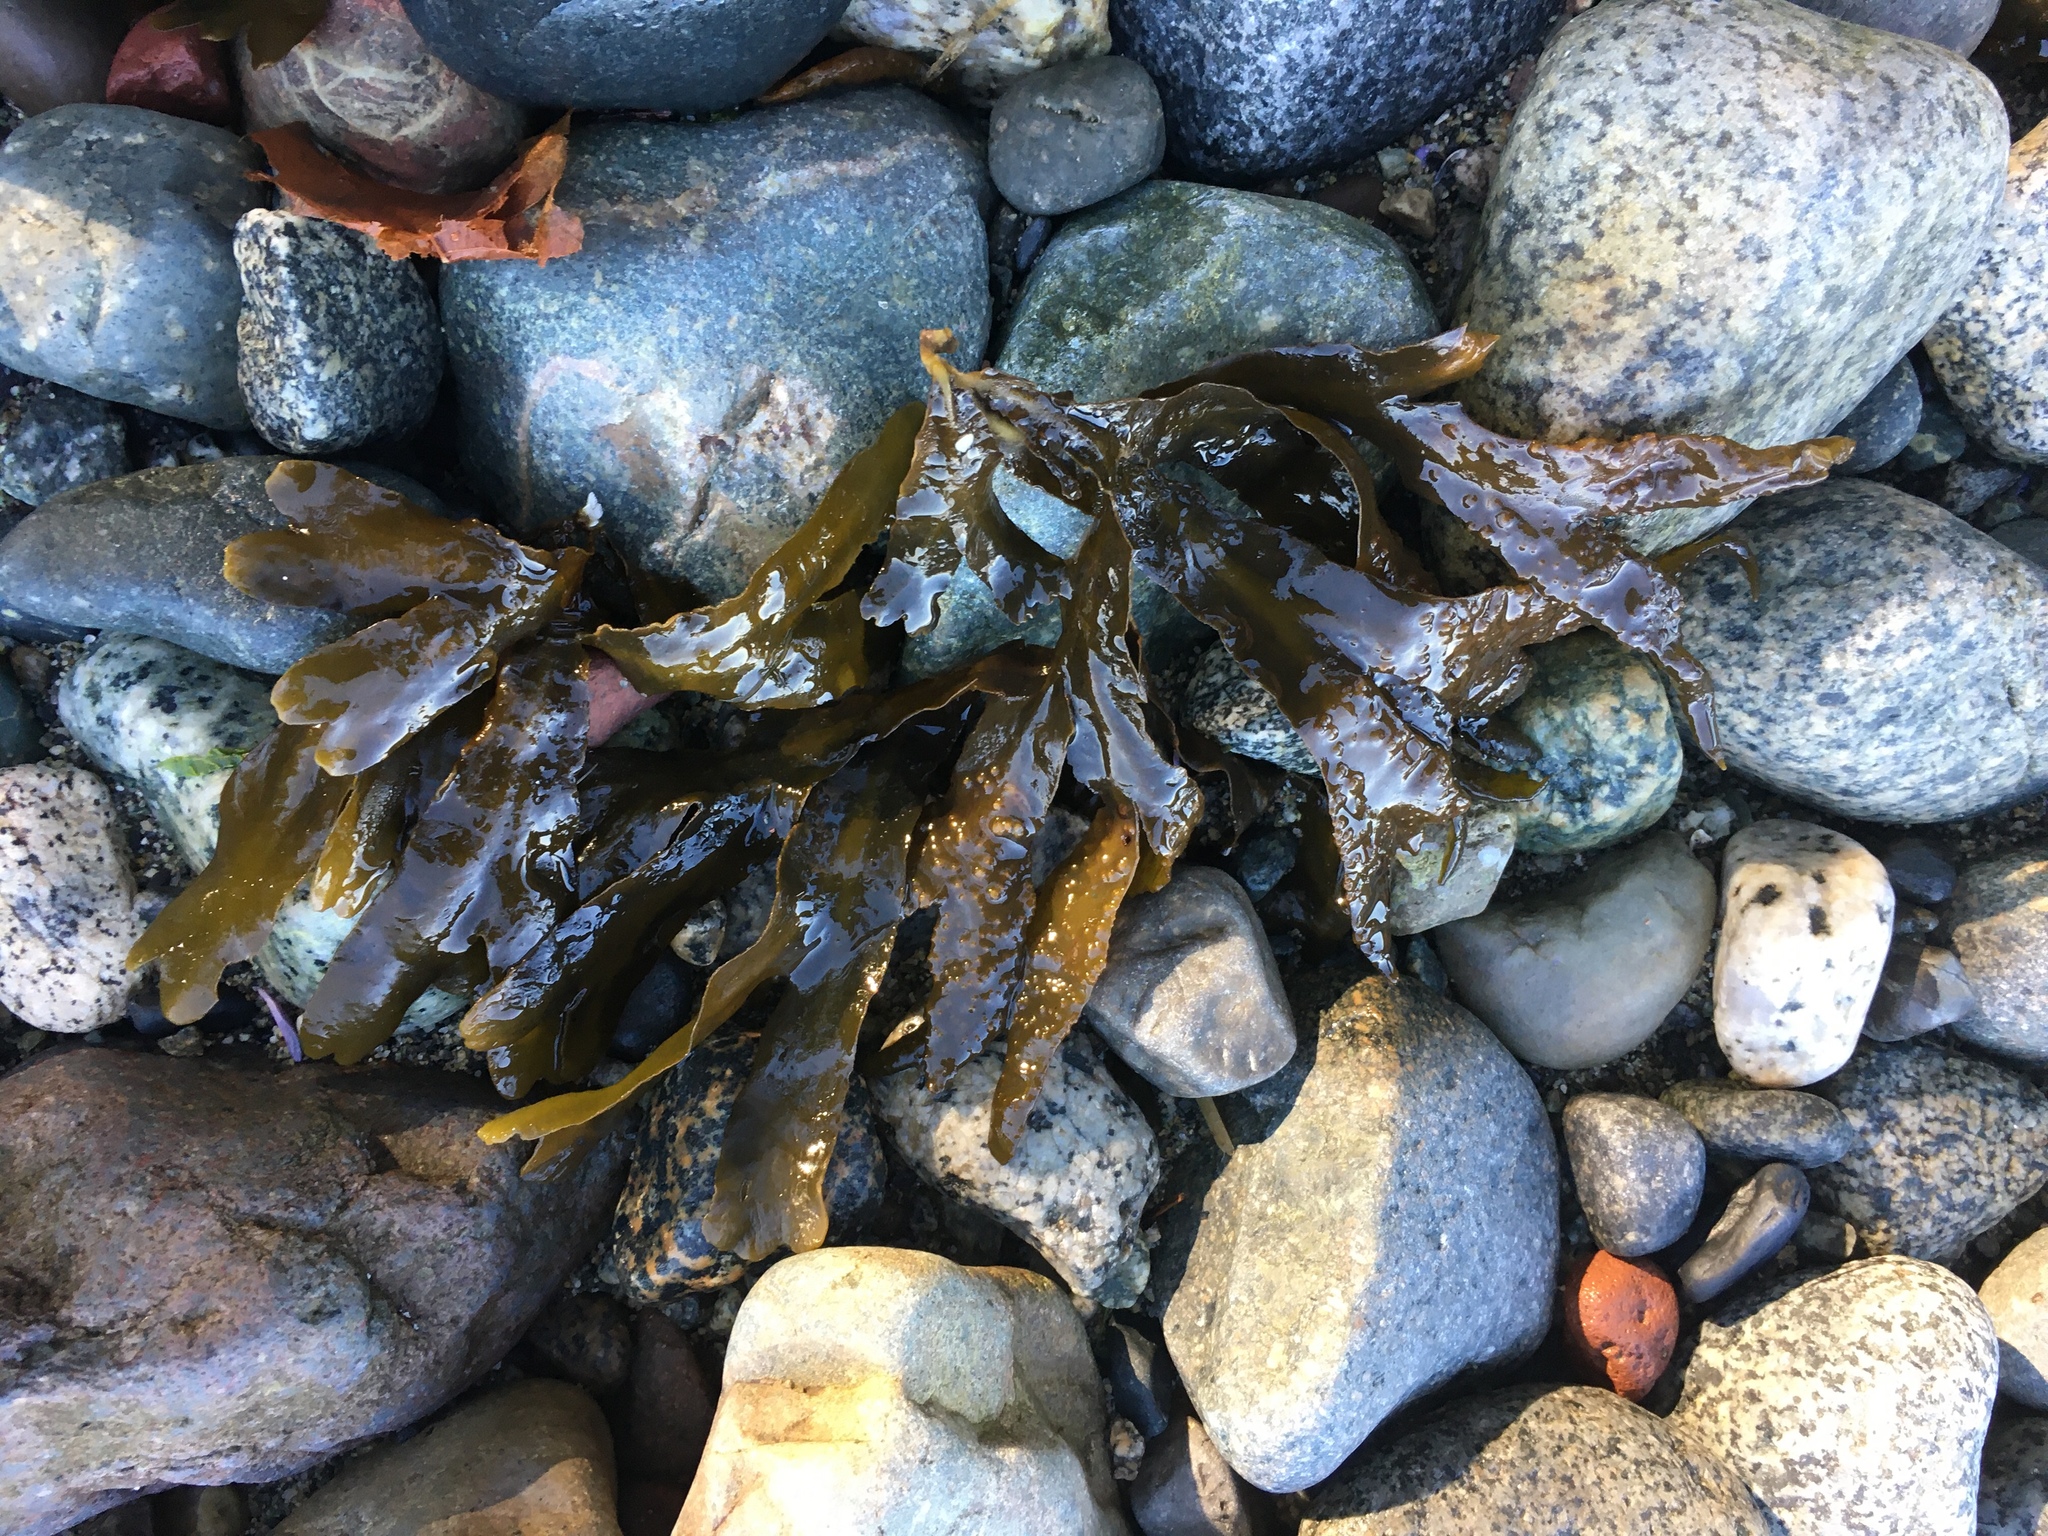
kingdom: Chromista
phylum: Ochrophyta
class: Phaeophyceae
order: Fucales
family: Fucaceae
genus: Fucus
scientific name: Fucus distichus
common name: Rockweed
